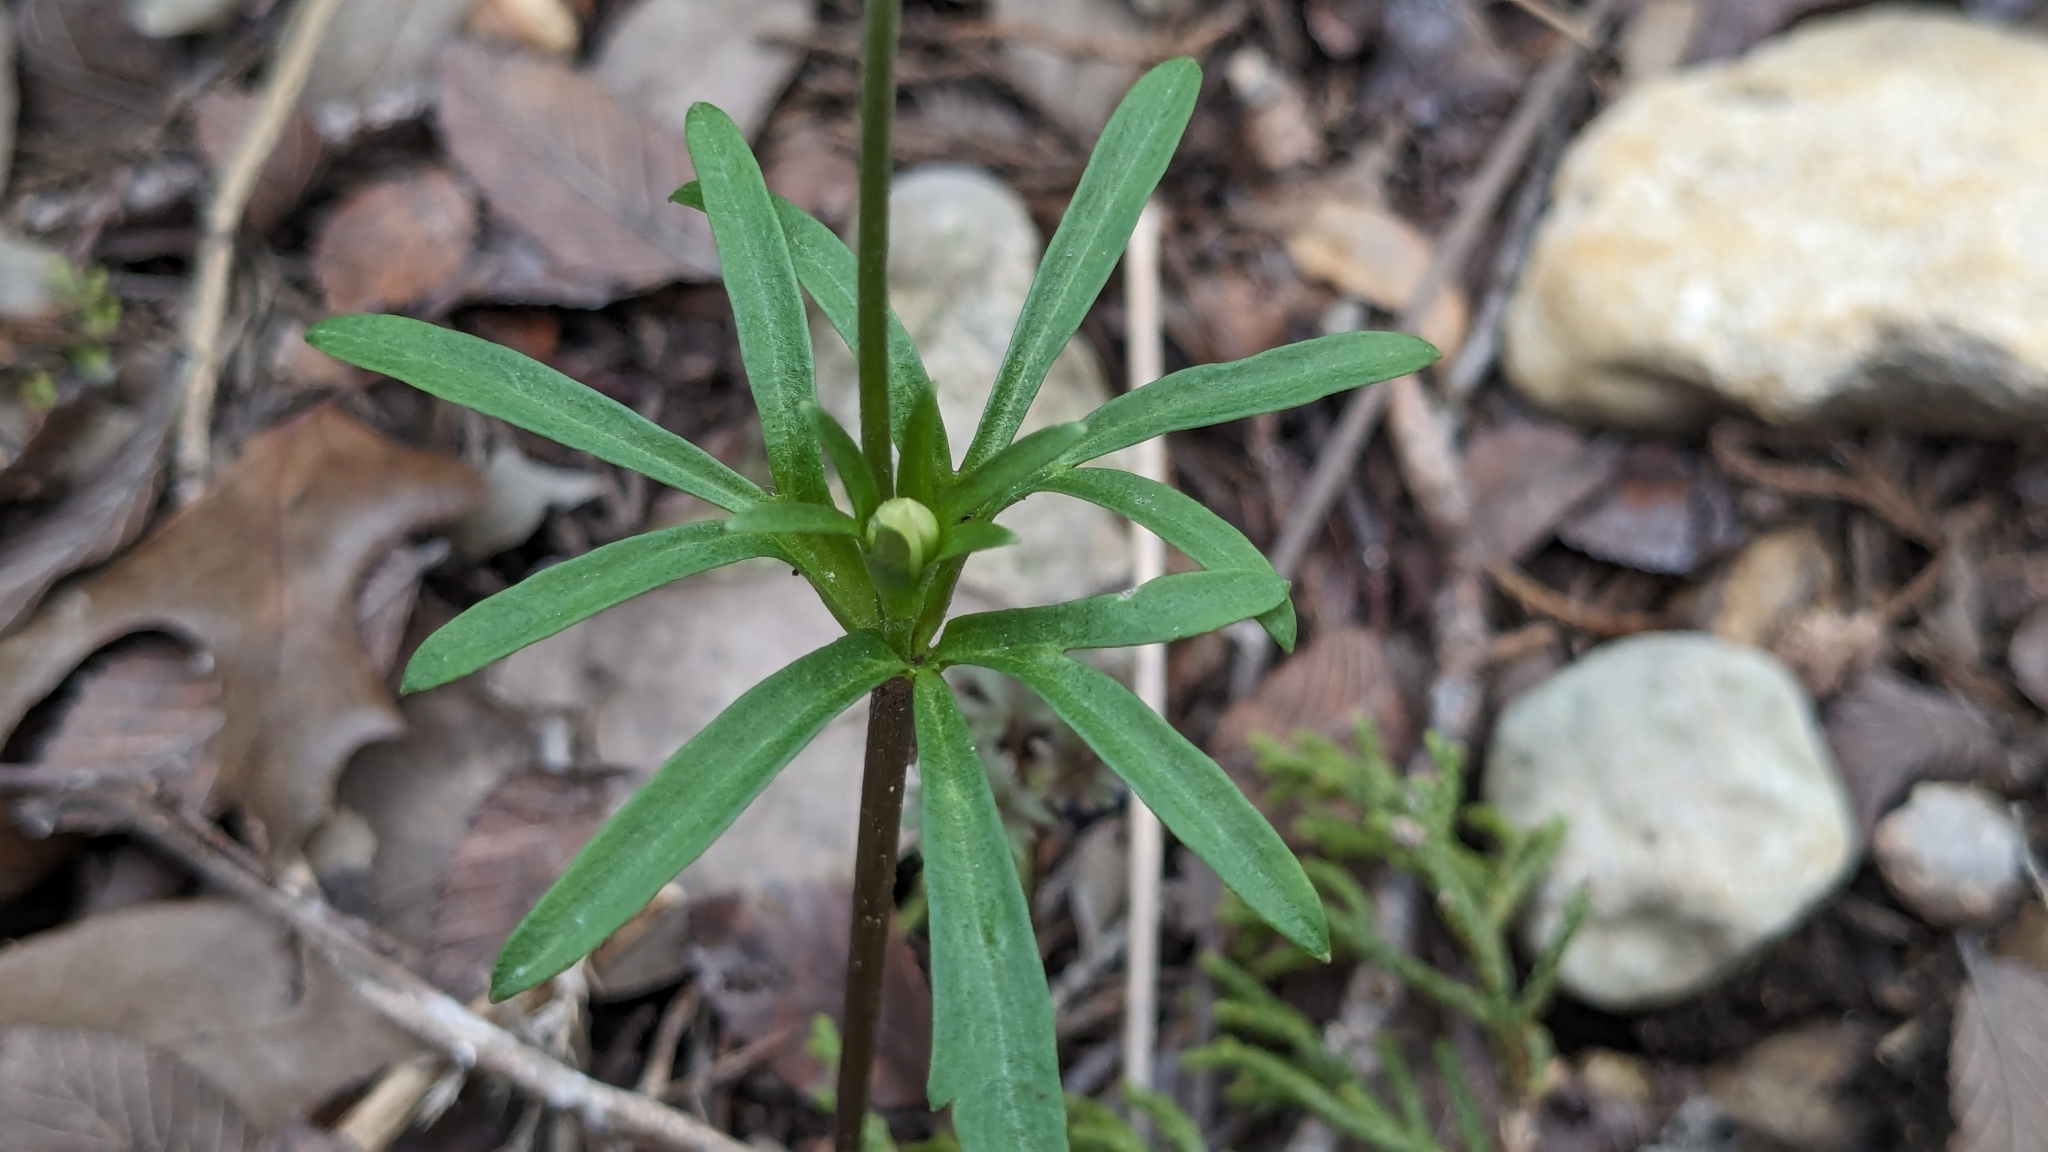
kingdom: Plantae
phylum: Tracheophyta
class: Magnoliopsida
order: Ranunculales
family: Ranunculaceae
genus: Anemone
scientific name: Anemone edwardsiana
